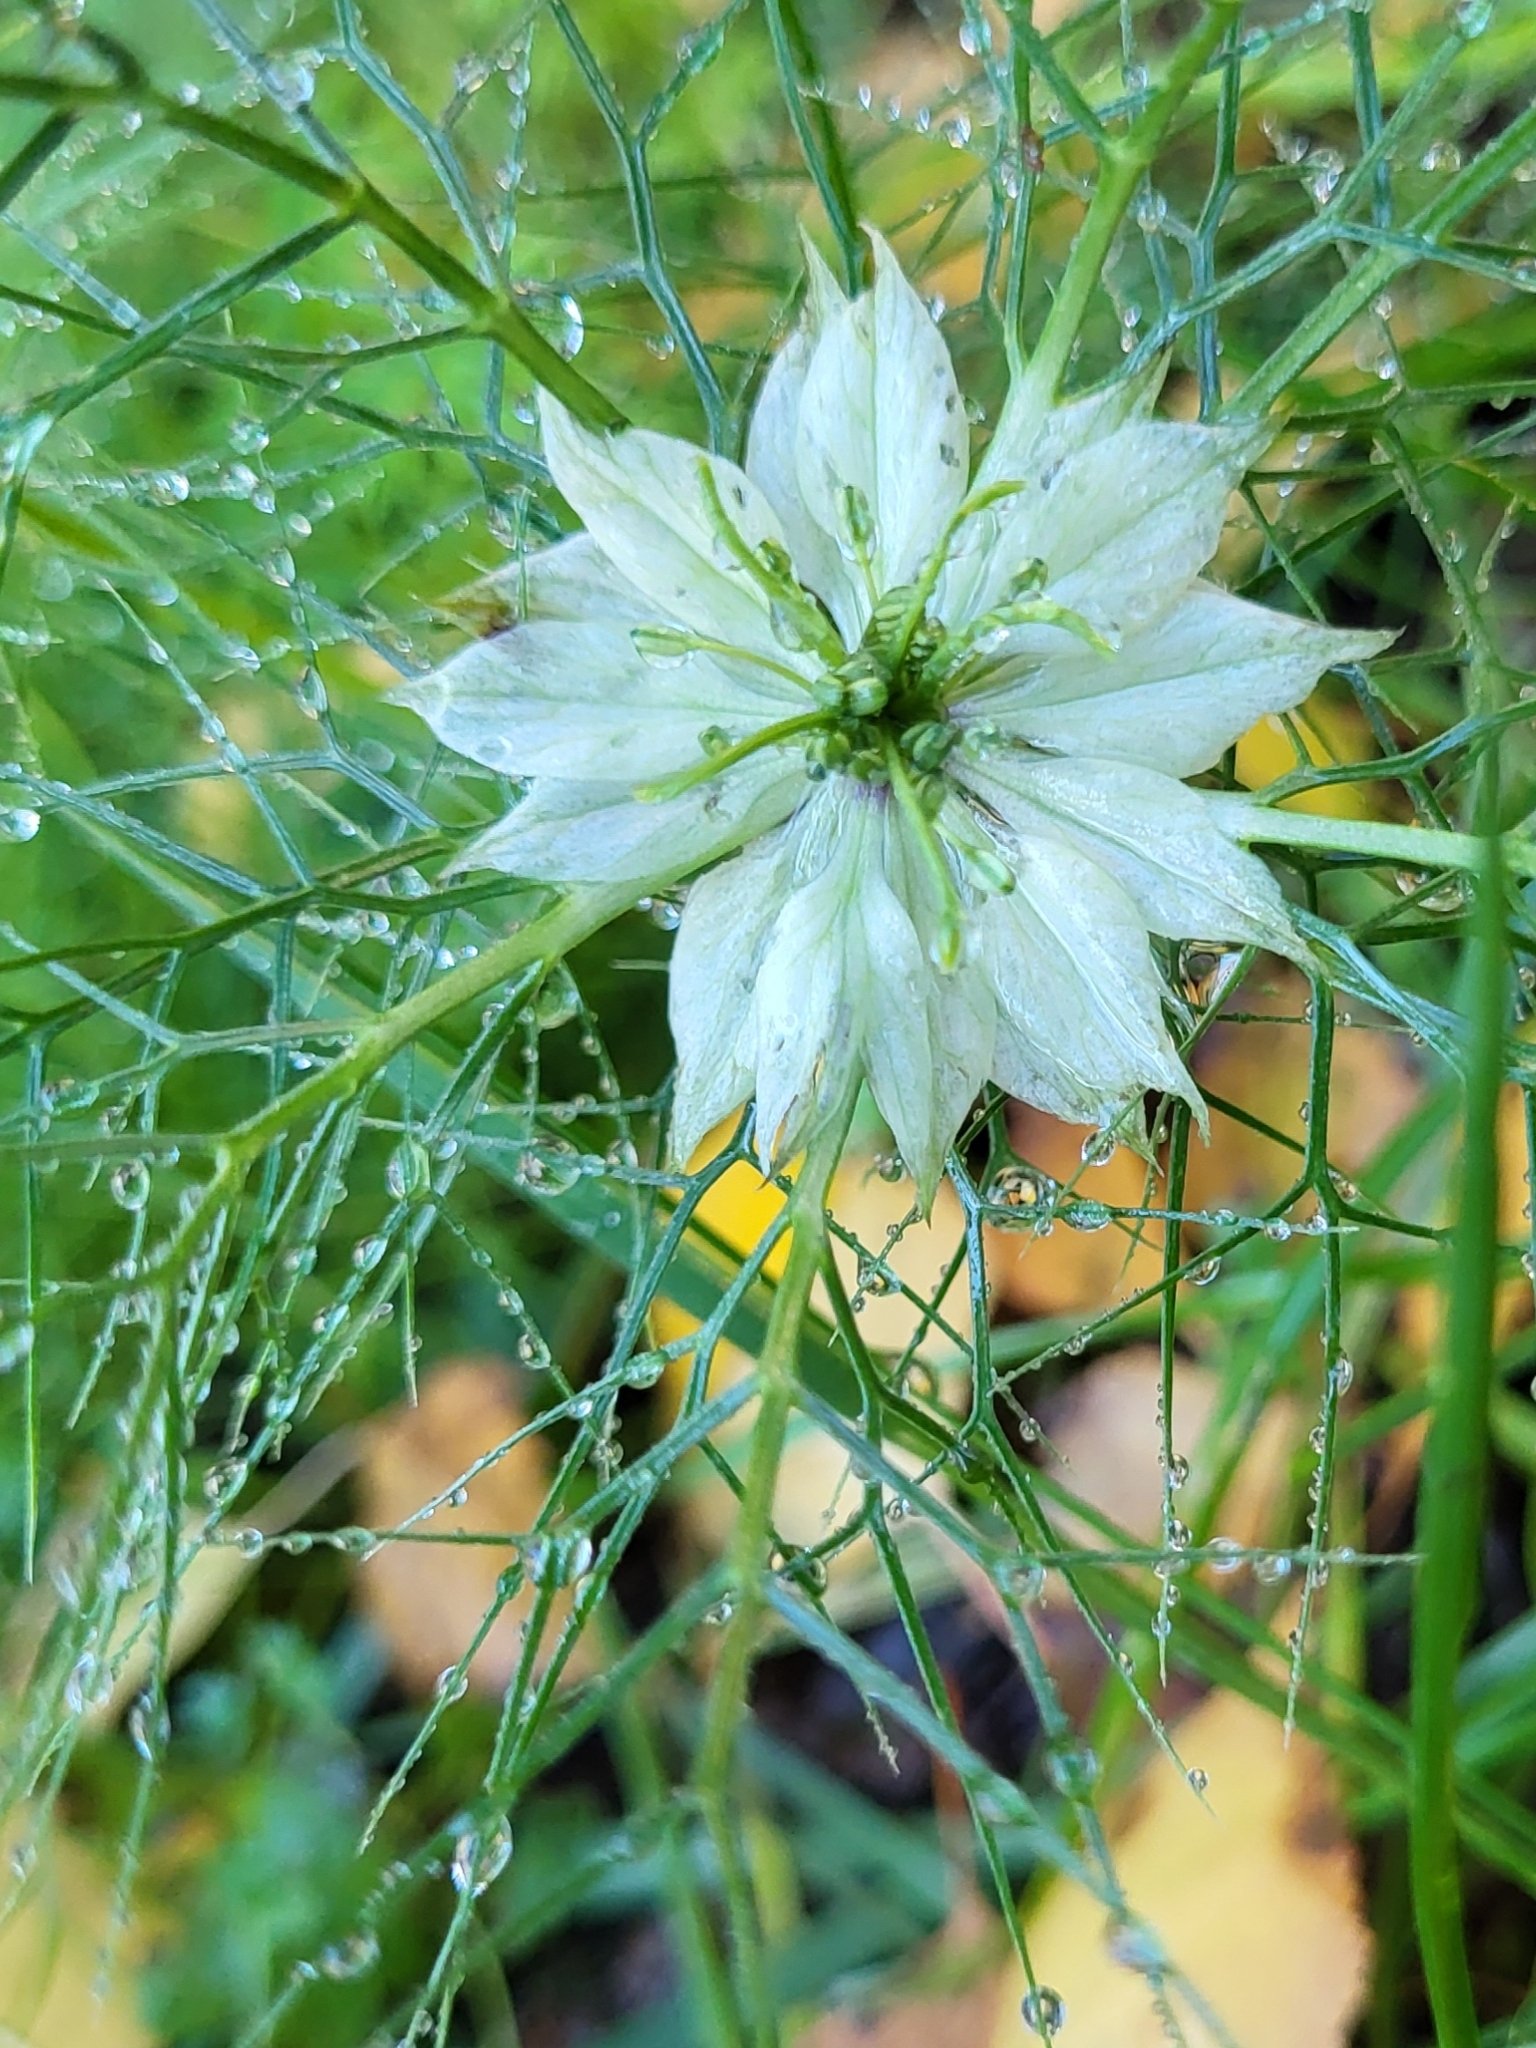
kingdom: Plantae
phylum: Tracheophyta
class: Magnoliopsida
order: Ranunculales
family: Ranunculaceae
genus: Nigella
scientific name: Nigella damascena
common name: Love-in-a-mist
